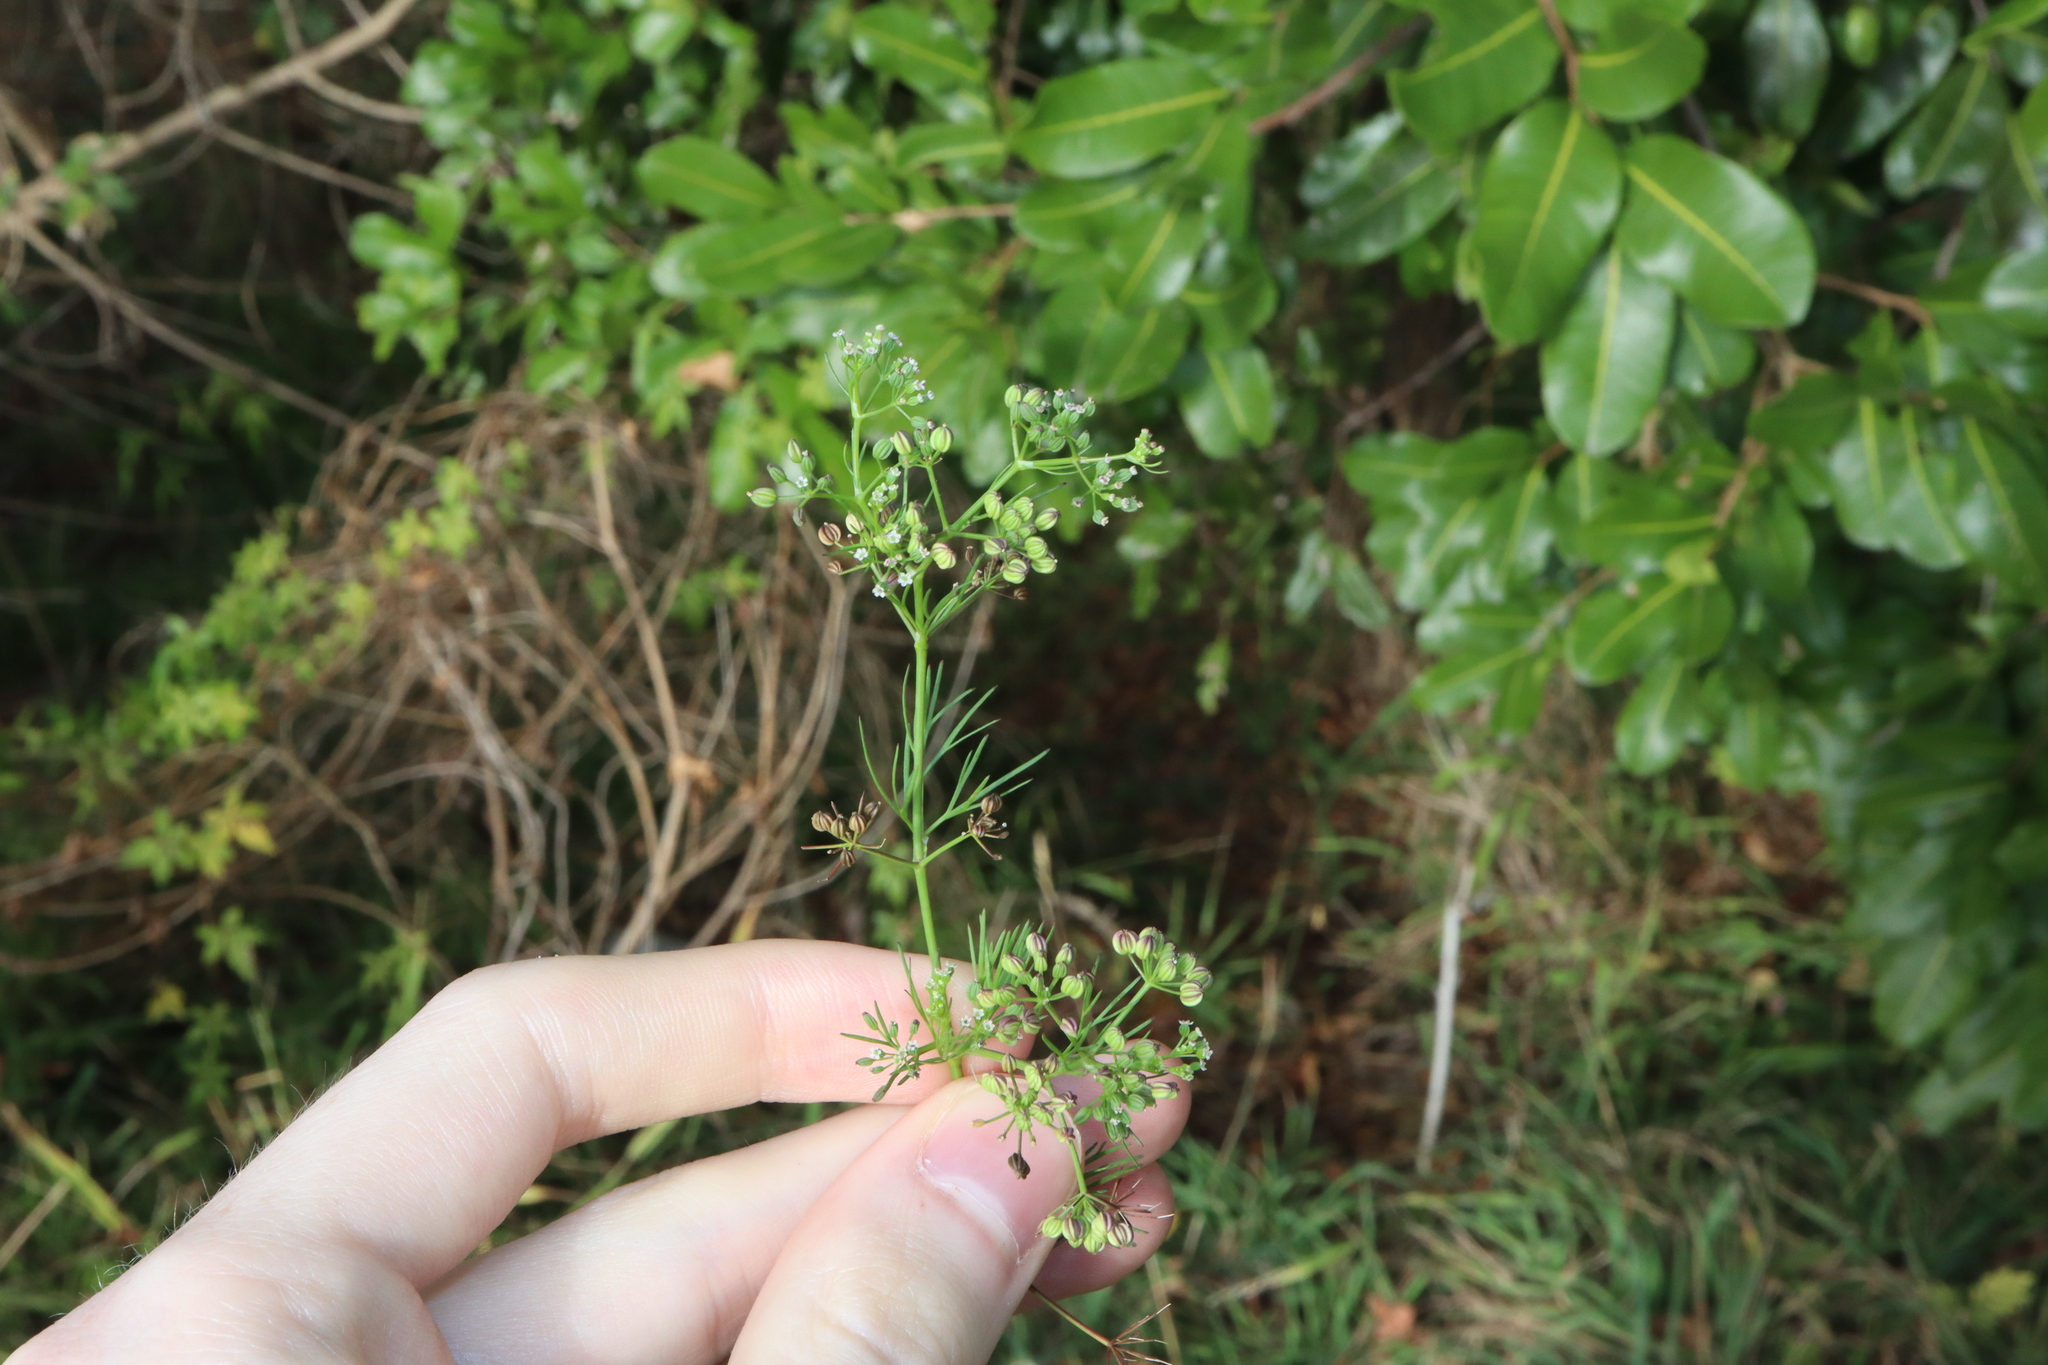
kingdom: Plantae
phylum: Tracheophyta
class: Magnoliopsida
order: Apiales
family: Apiaceae
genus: Cyclospermum
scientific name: Cyclospermum leptophyllum
